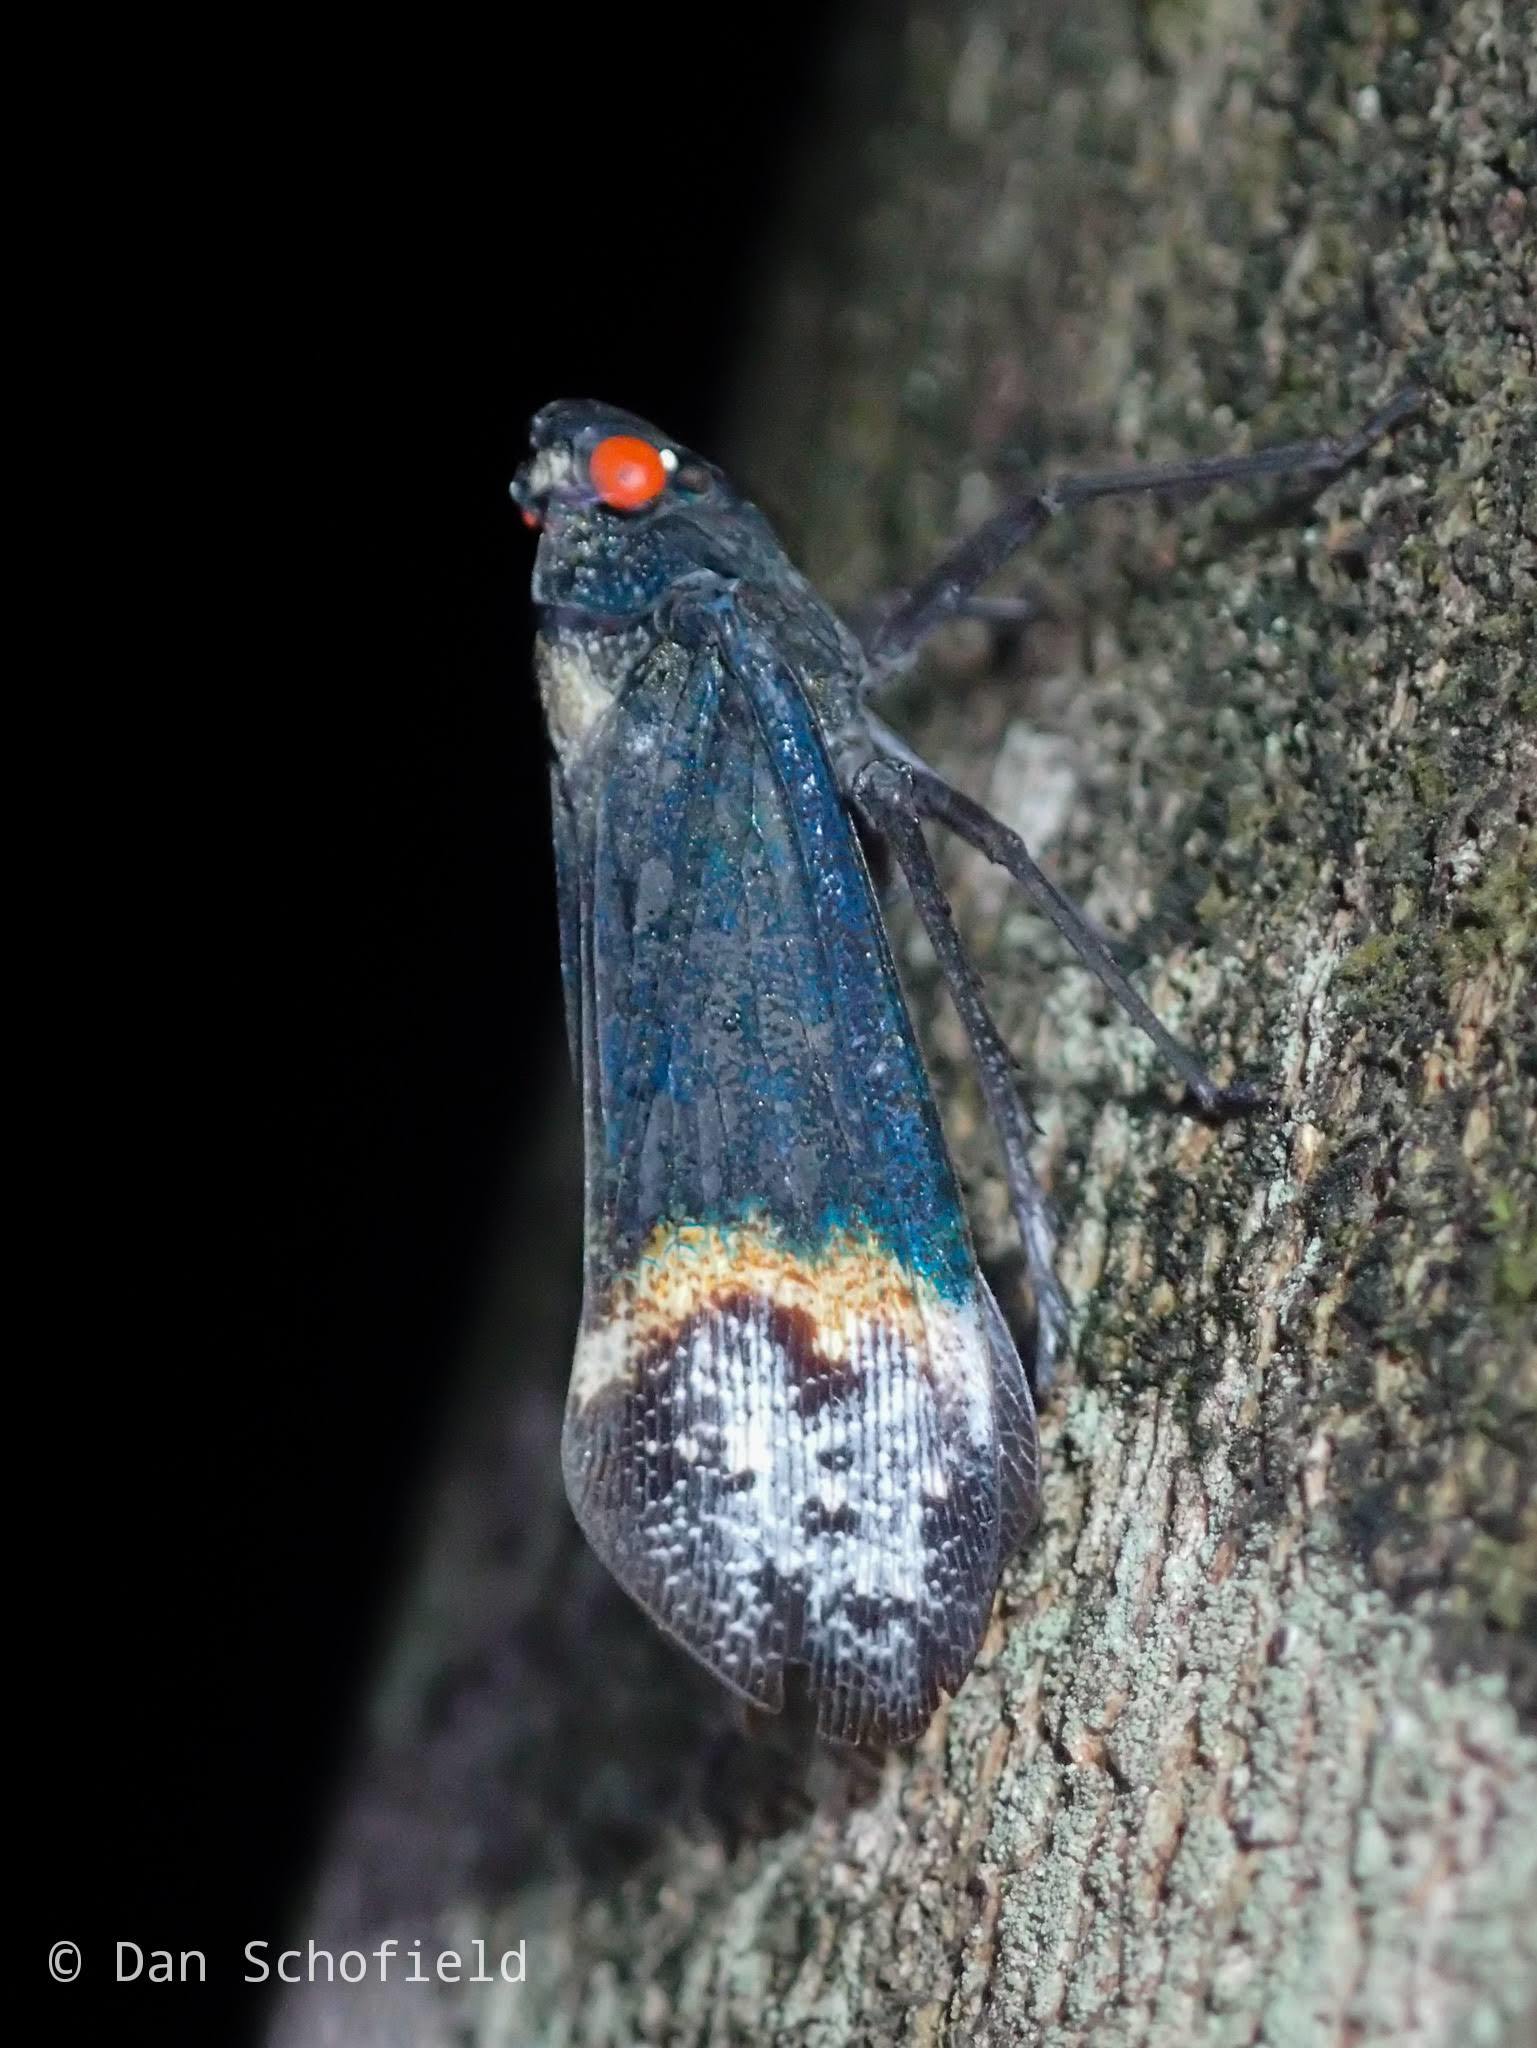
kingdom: Animalia
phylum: Arthropoda
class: Insecta
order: Hemiptera
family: Fulgoridae
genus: Penthicodes
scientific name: Penthicodes farinosa
